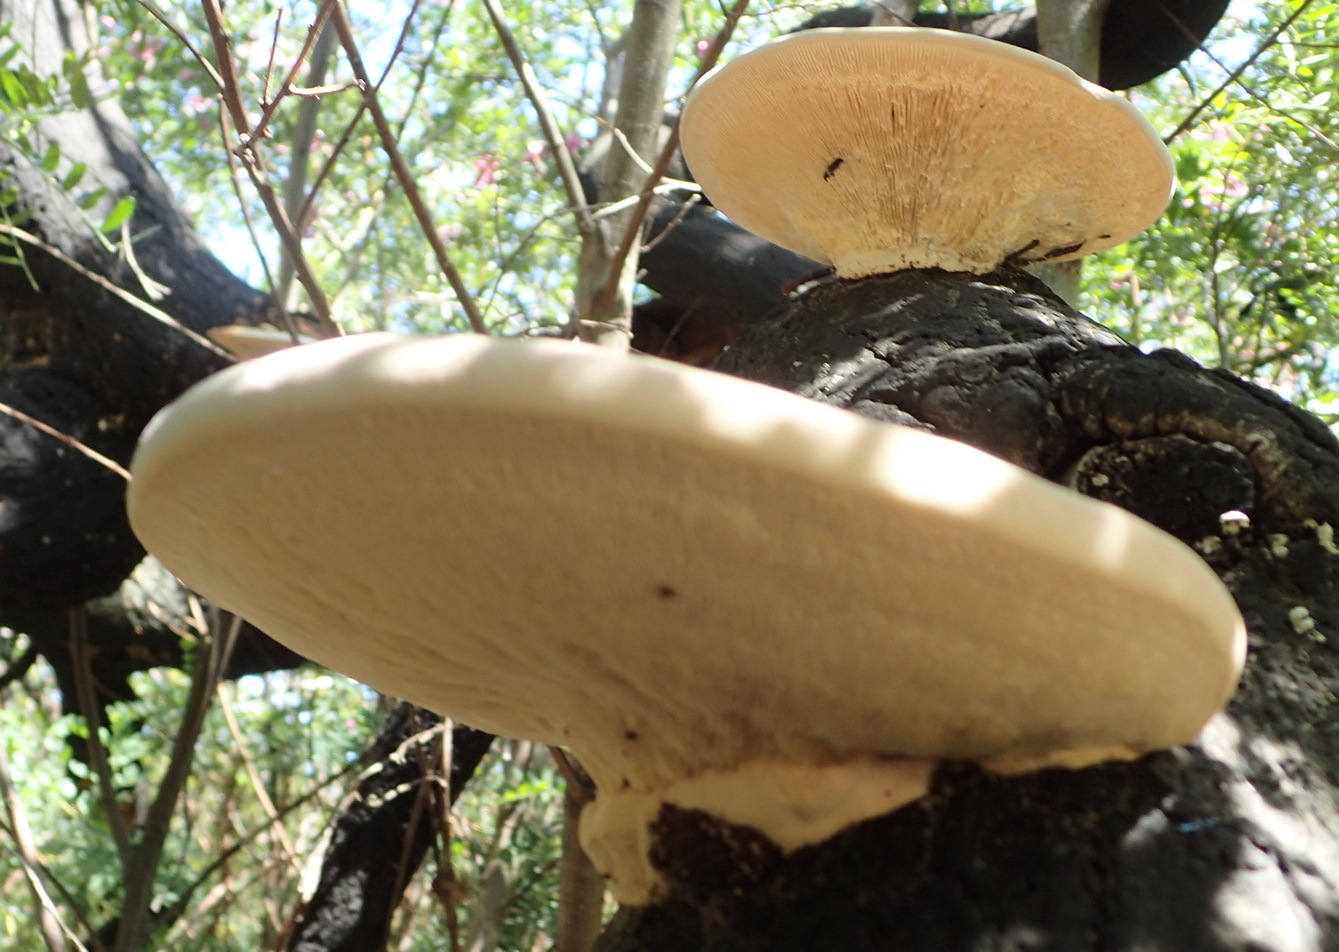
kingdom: Fungi
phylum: Basidiomycota
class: Agaricomycetes
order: Polyporales
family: Polyporaceae
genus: Trametes
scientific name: Trametes elegans
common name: White maze polypore
